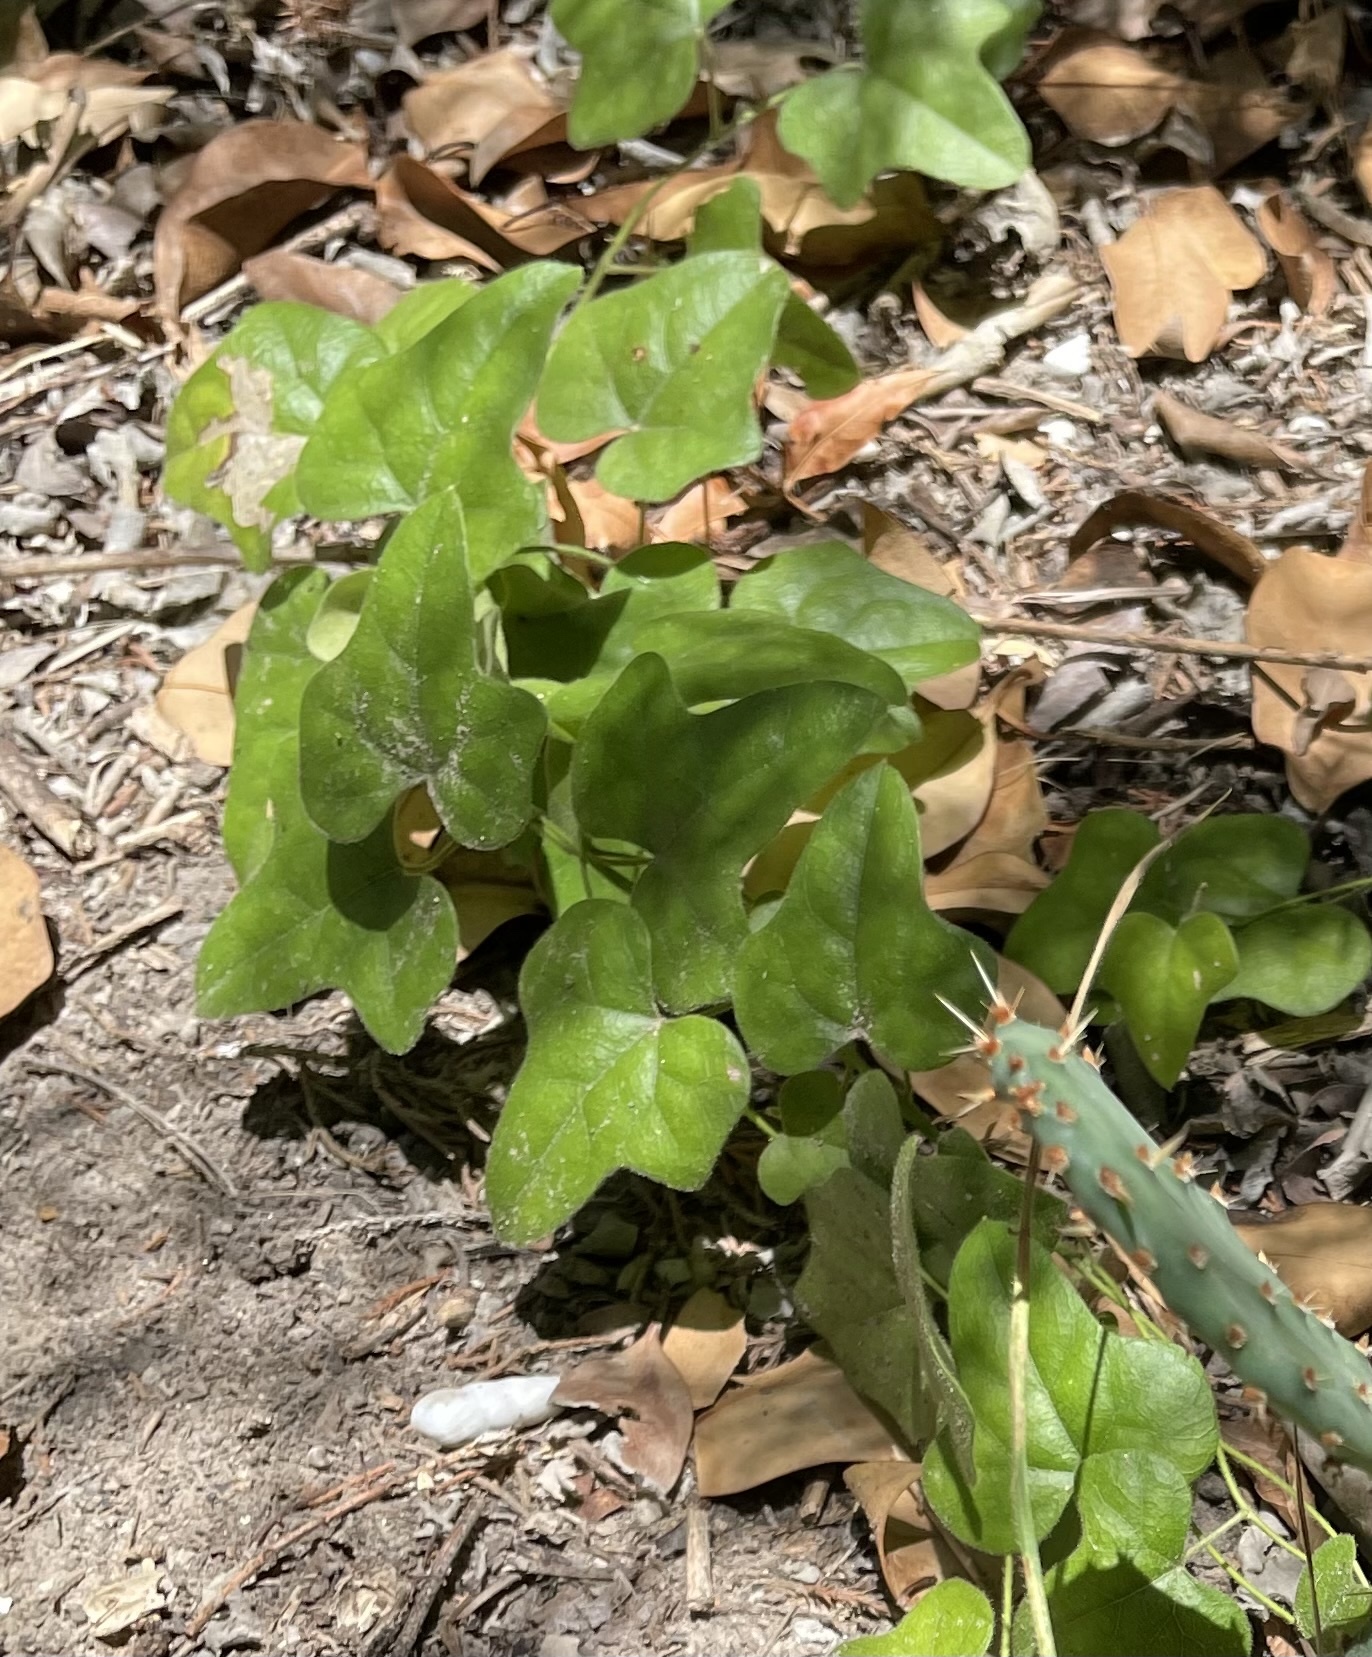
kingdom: Plantae
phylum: Tracheophyta
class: Magnoliopsida
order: Ranunculales
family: Menispermaceae
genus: Cocculus
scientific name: Cocculus carolinus
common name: Carolina moonseed
